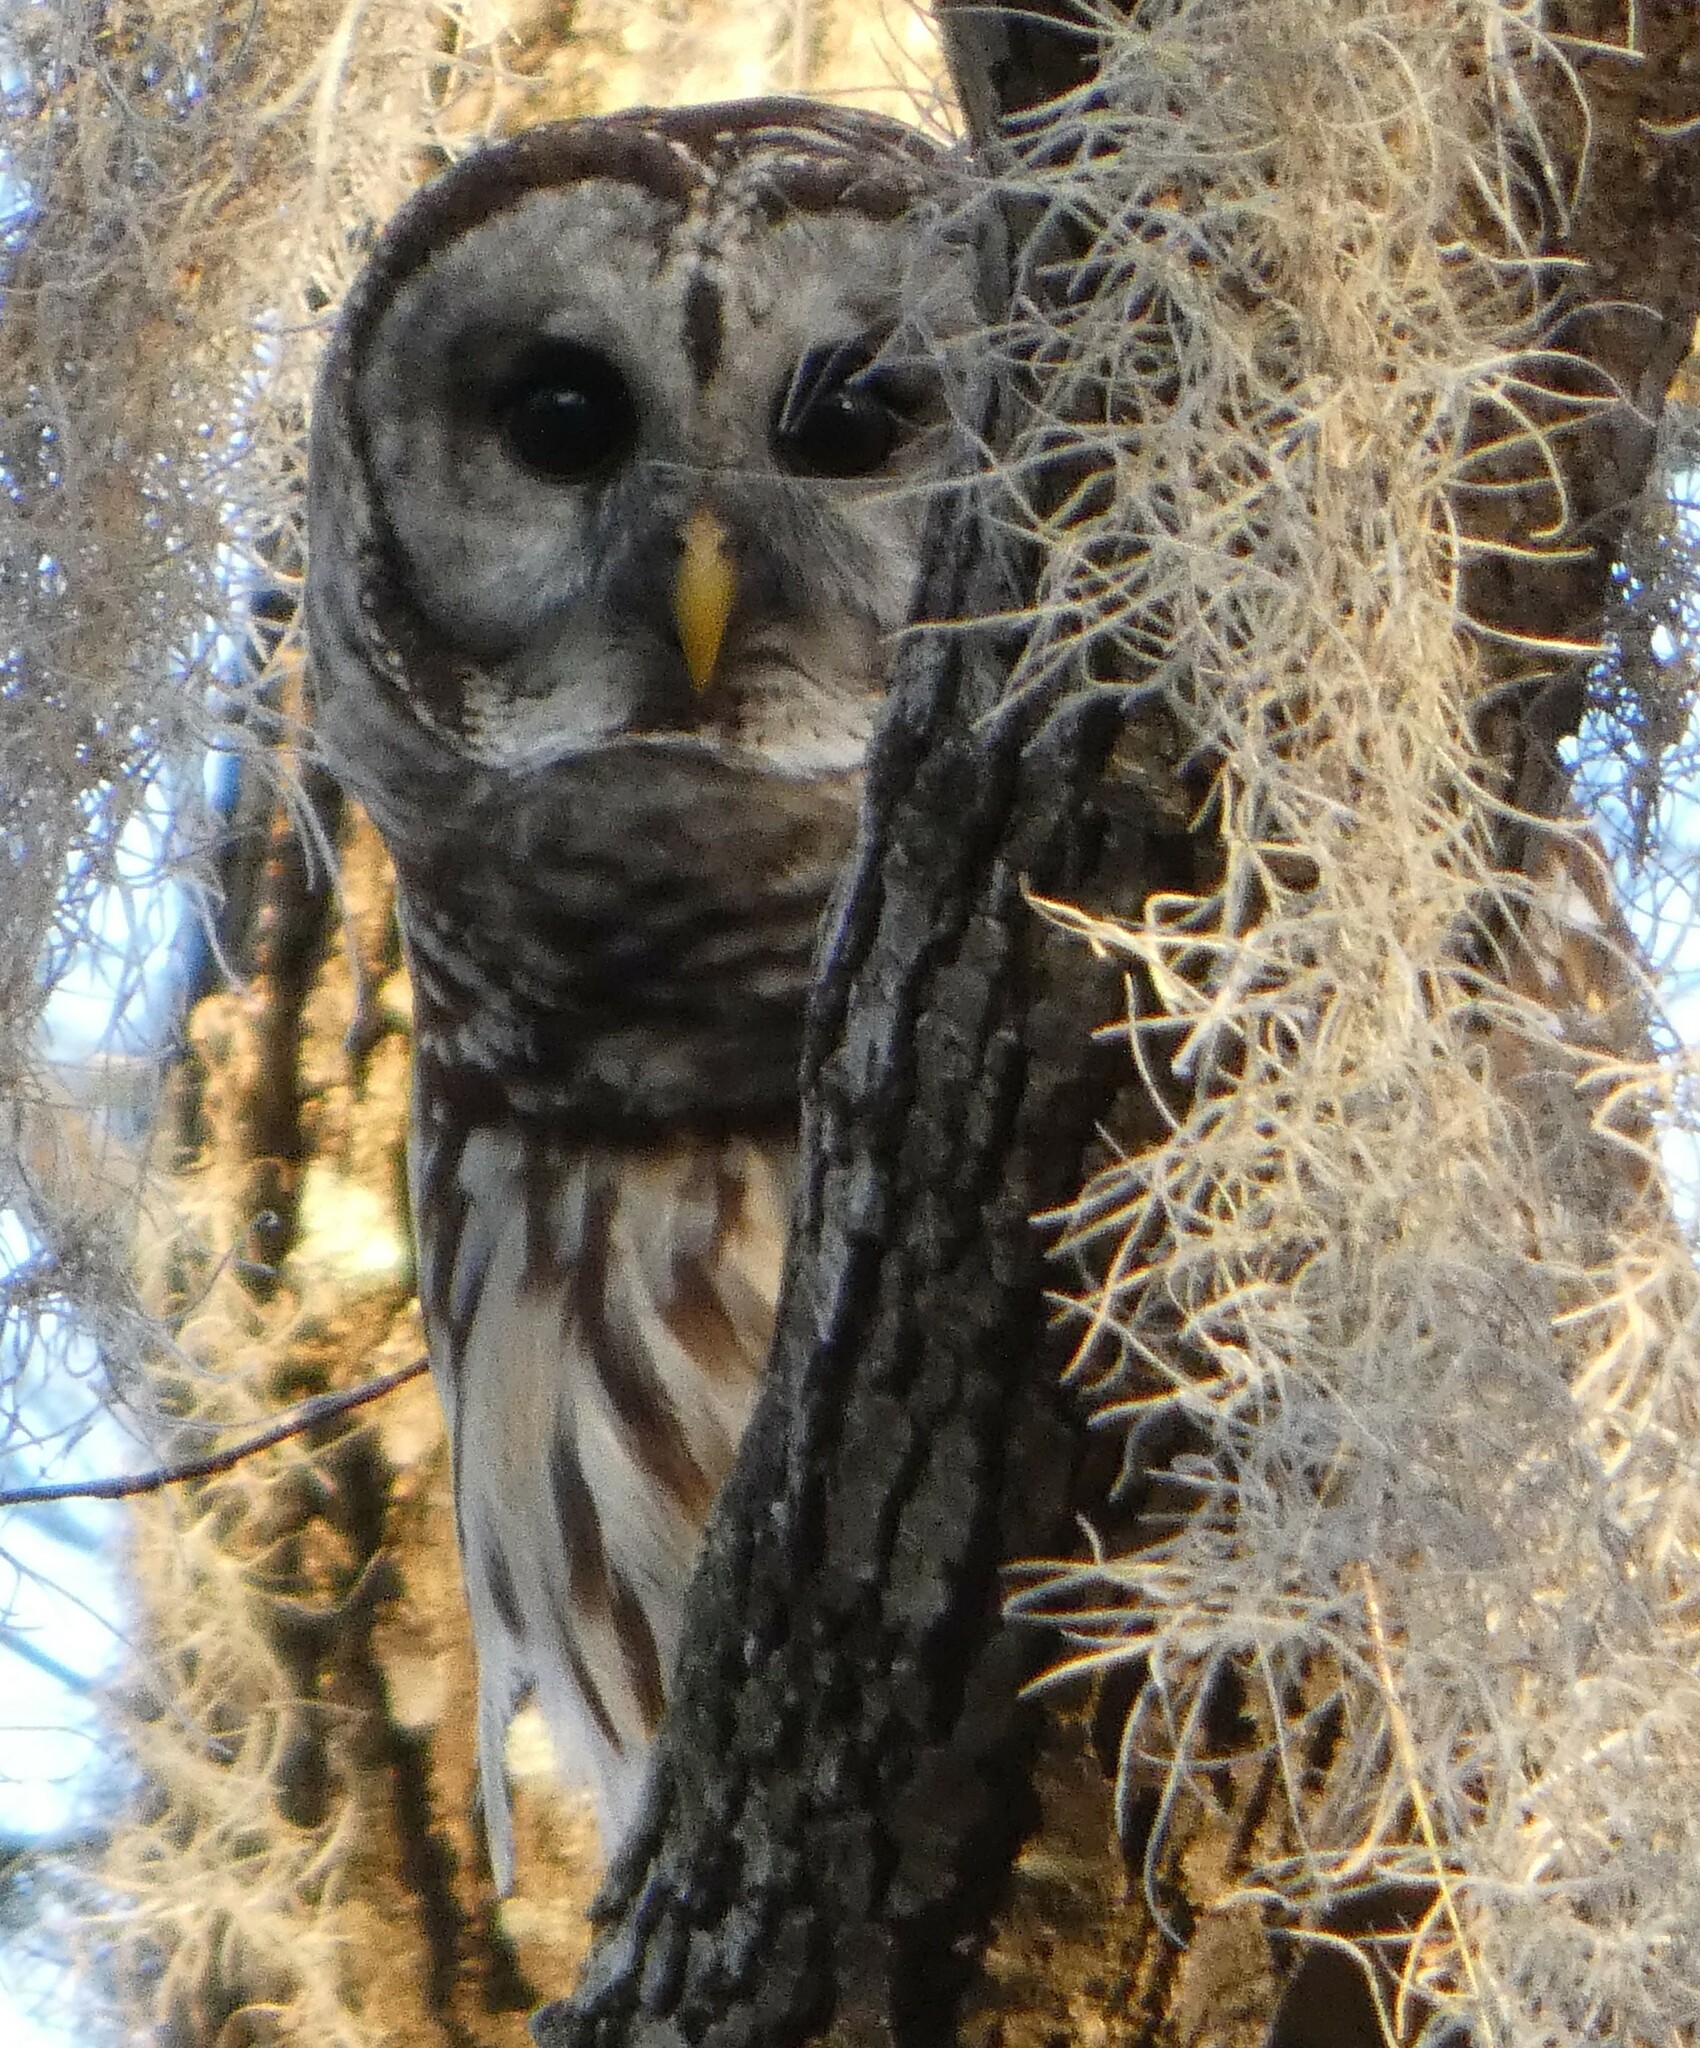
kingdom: Animalia
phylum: Chordata
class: Aves
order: Strigiformes
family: Strigidae
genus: Strix
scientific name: Strix varia
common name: Barred owl
